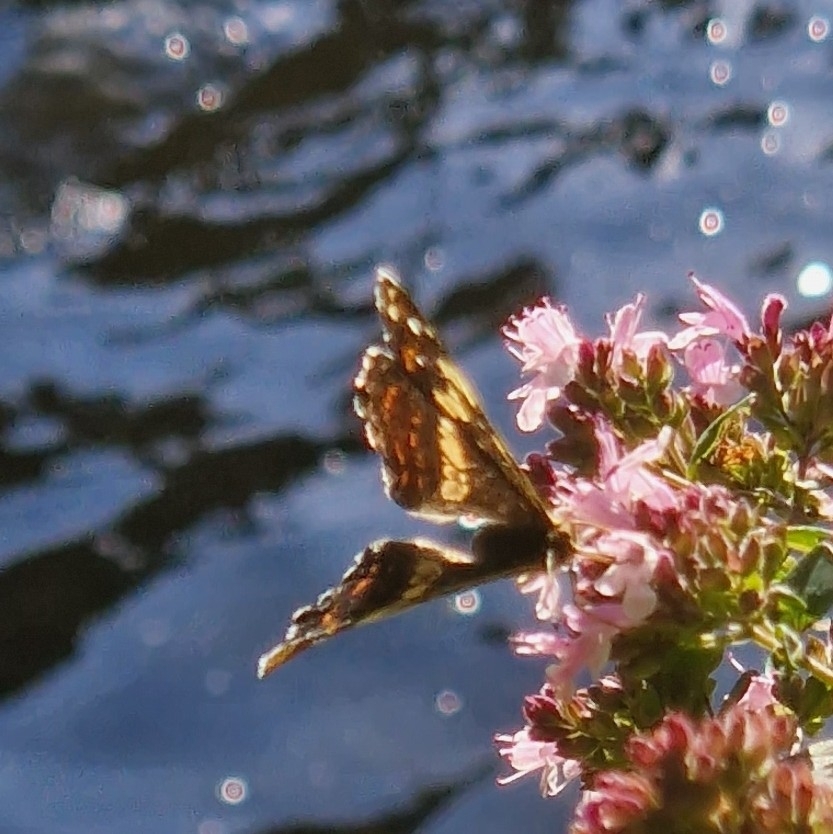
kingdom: Animalia
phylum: Arthropoda
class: Insecta
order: Lepidoptera
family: Nymphalidae
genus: Araschnia
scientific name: Araschnia levana
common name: Map butterfly
